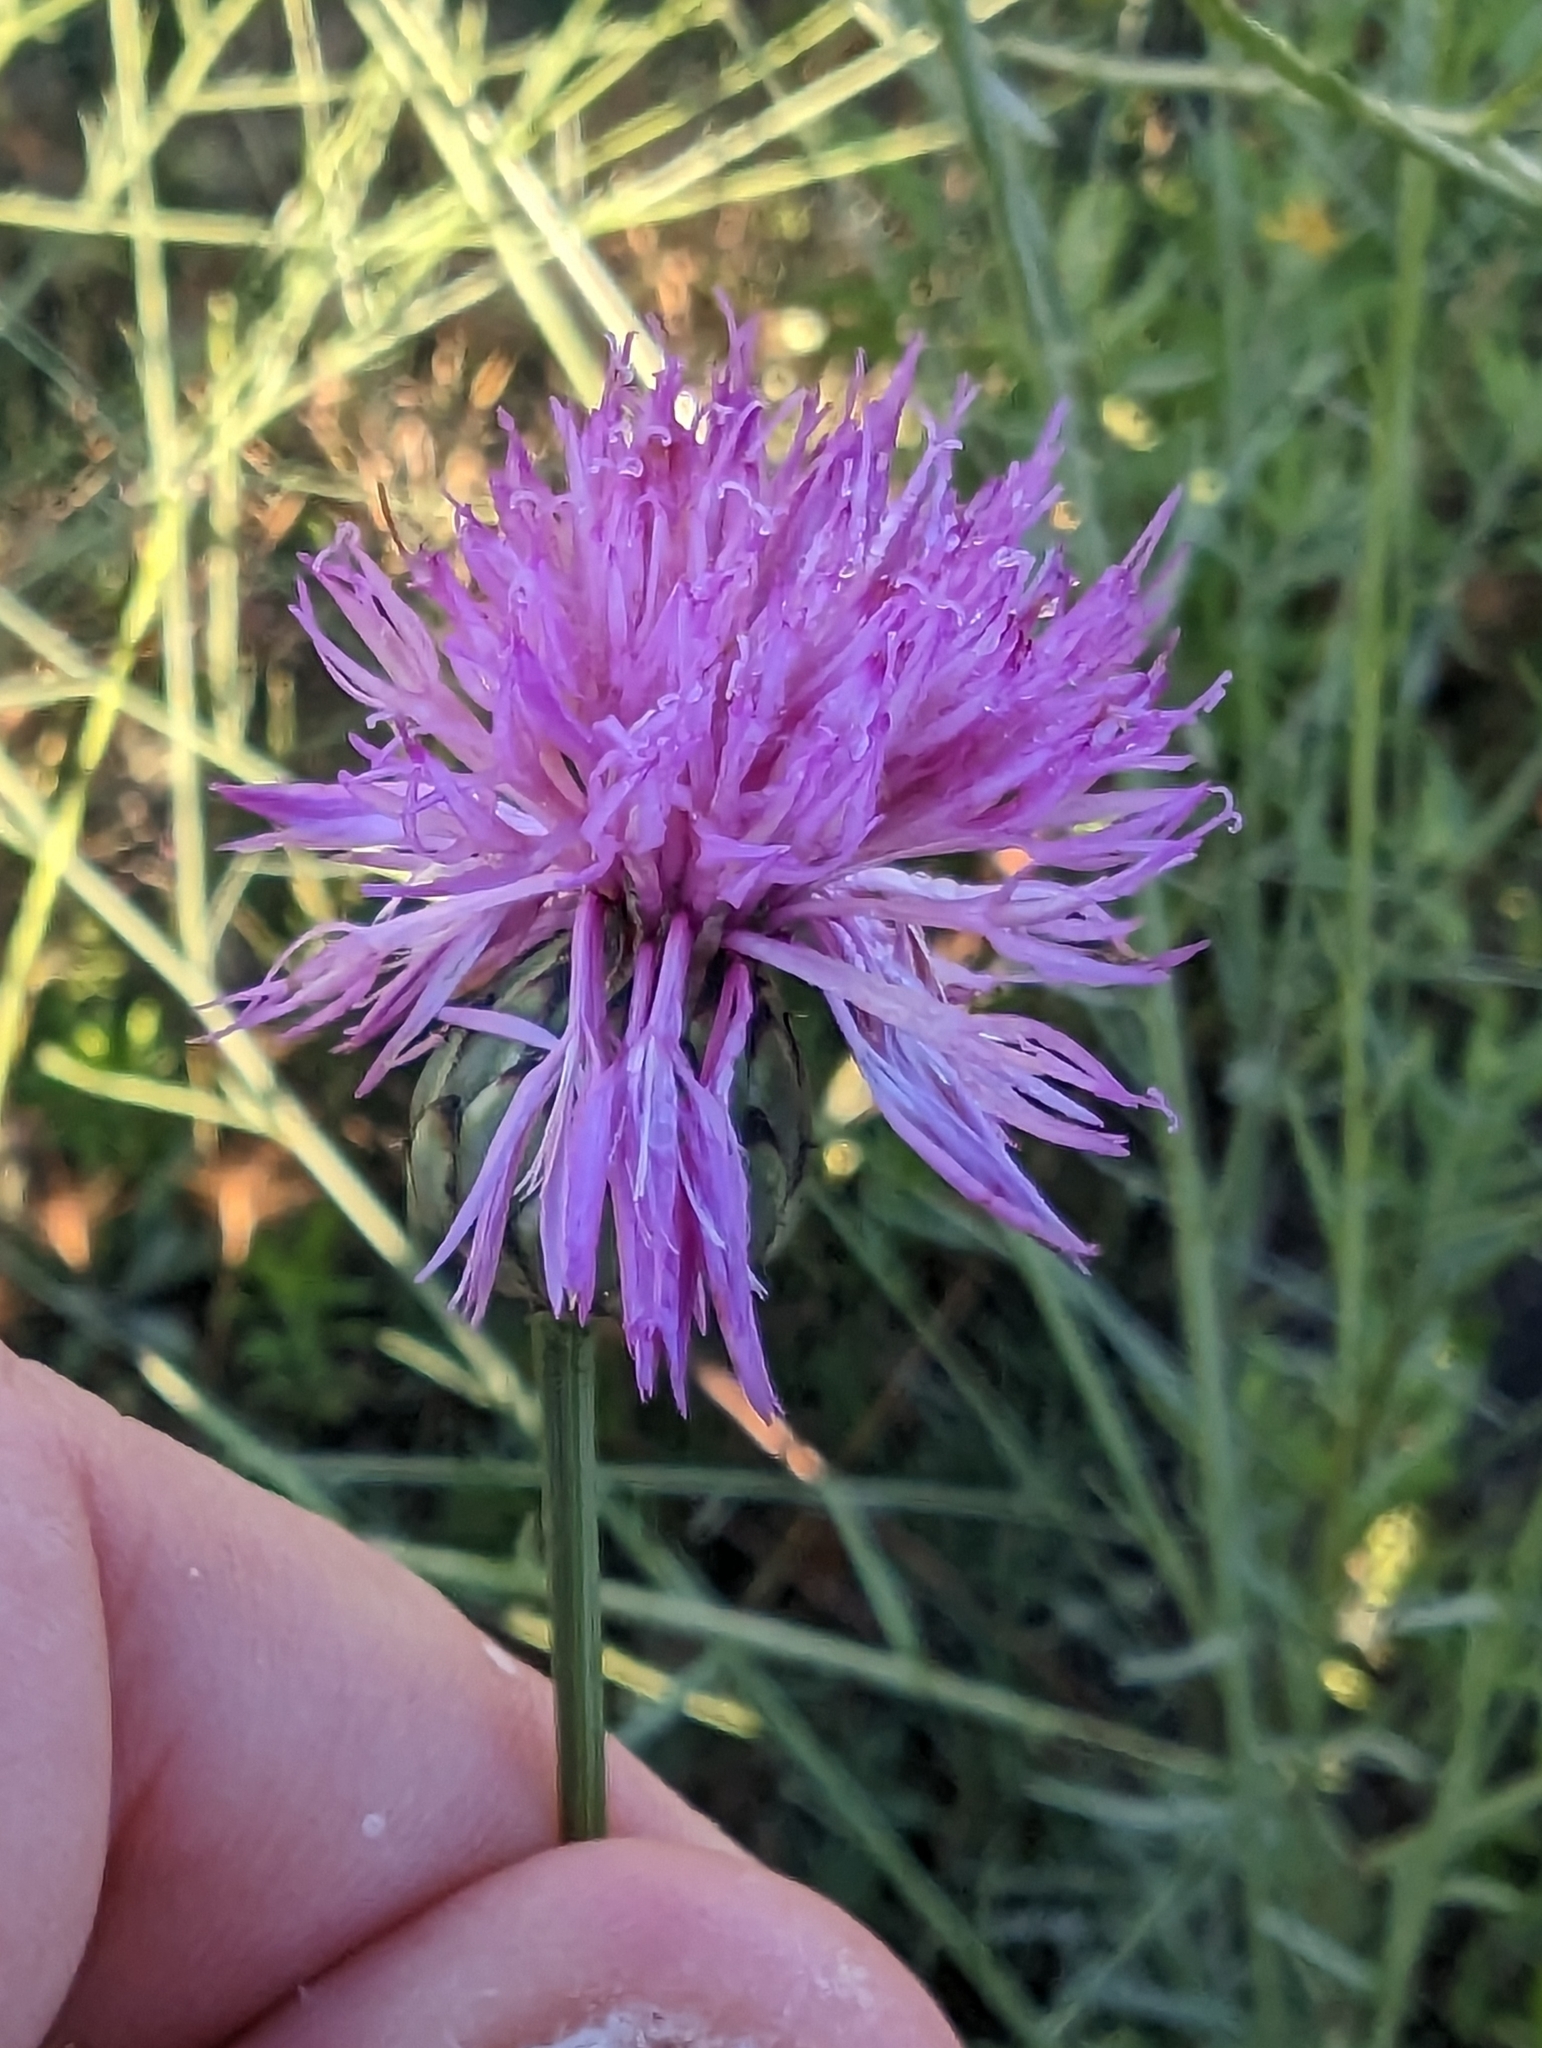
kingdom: Plantae
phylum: Tracheophyta
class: Magnoliopsida
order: Asterales
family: Asteraceae
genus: Mantisalca
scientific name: Mantisalca salmantica
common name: Dagger flower
